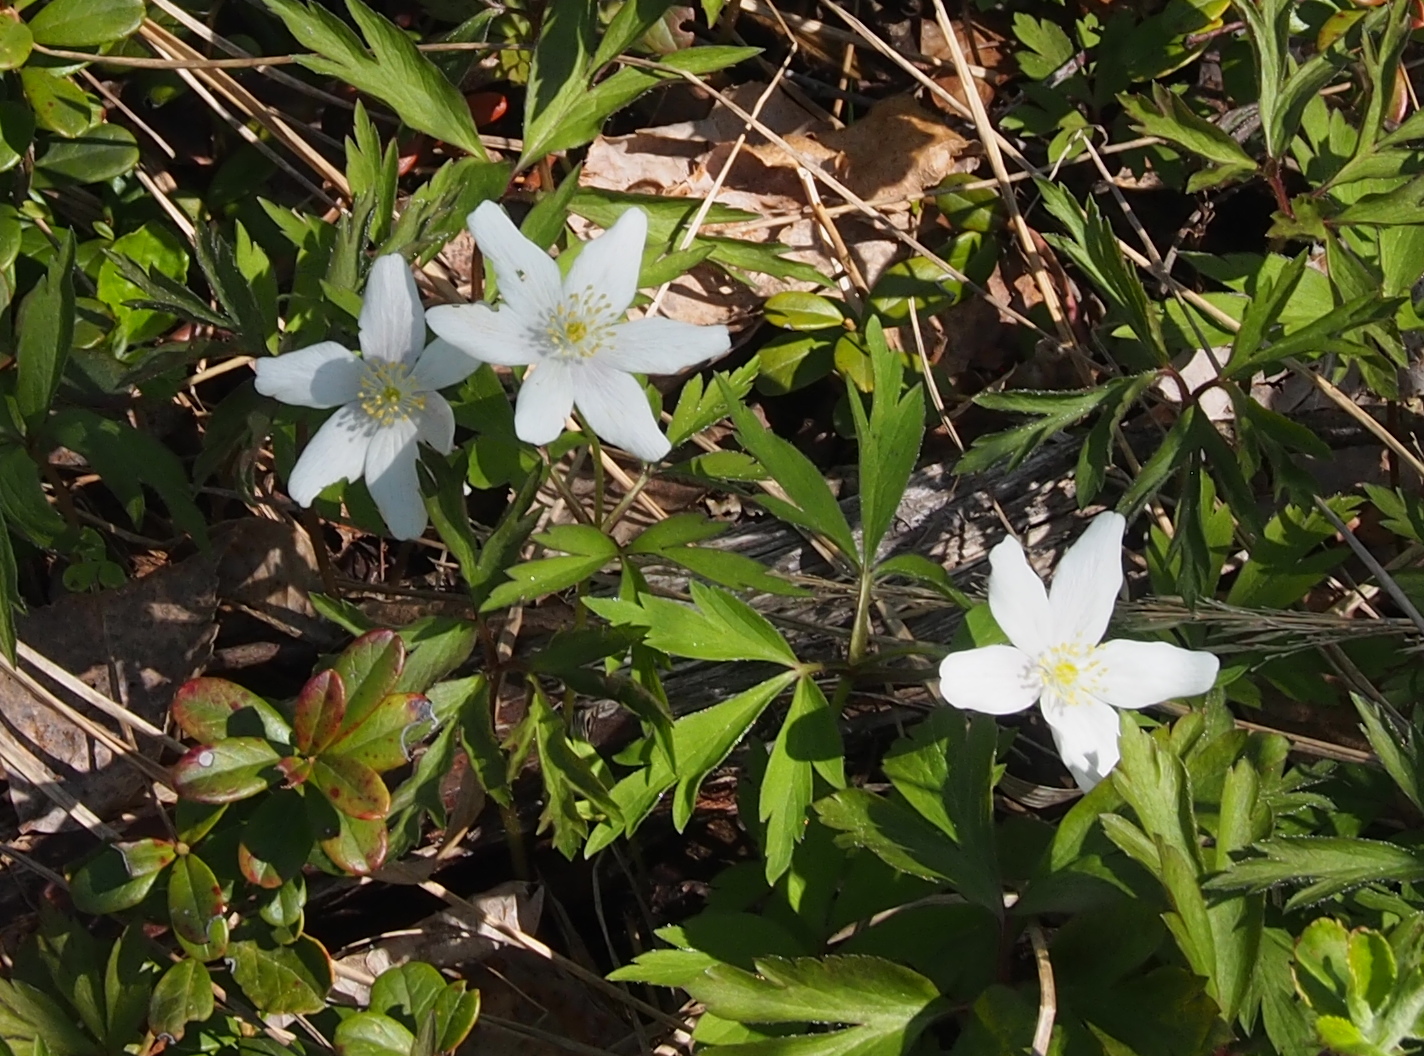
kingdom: Plantae
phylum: Tracheophyta
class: Magnoliopsida
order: Ranunculales
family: Ranunculaceae
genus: Anemone
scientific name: Anemone nemorosa
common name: Wood anemone
